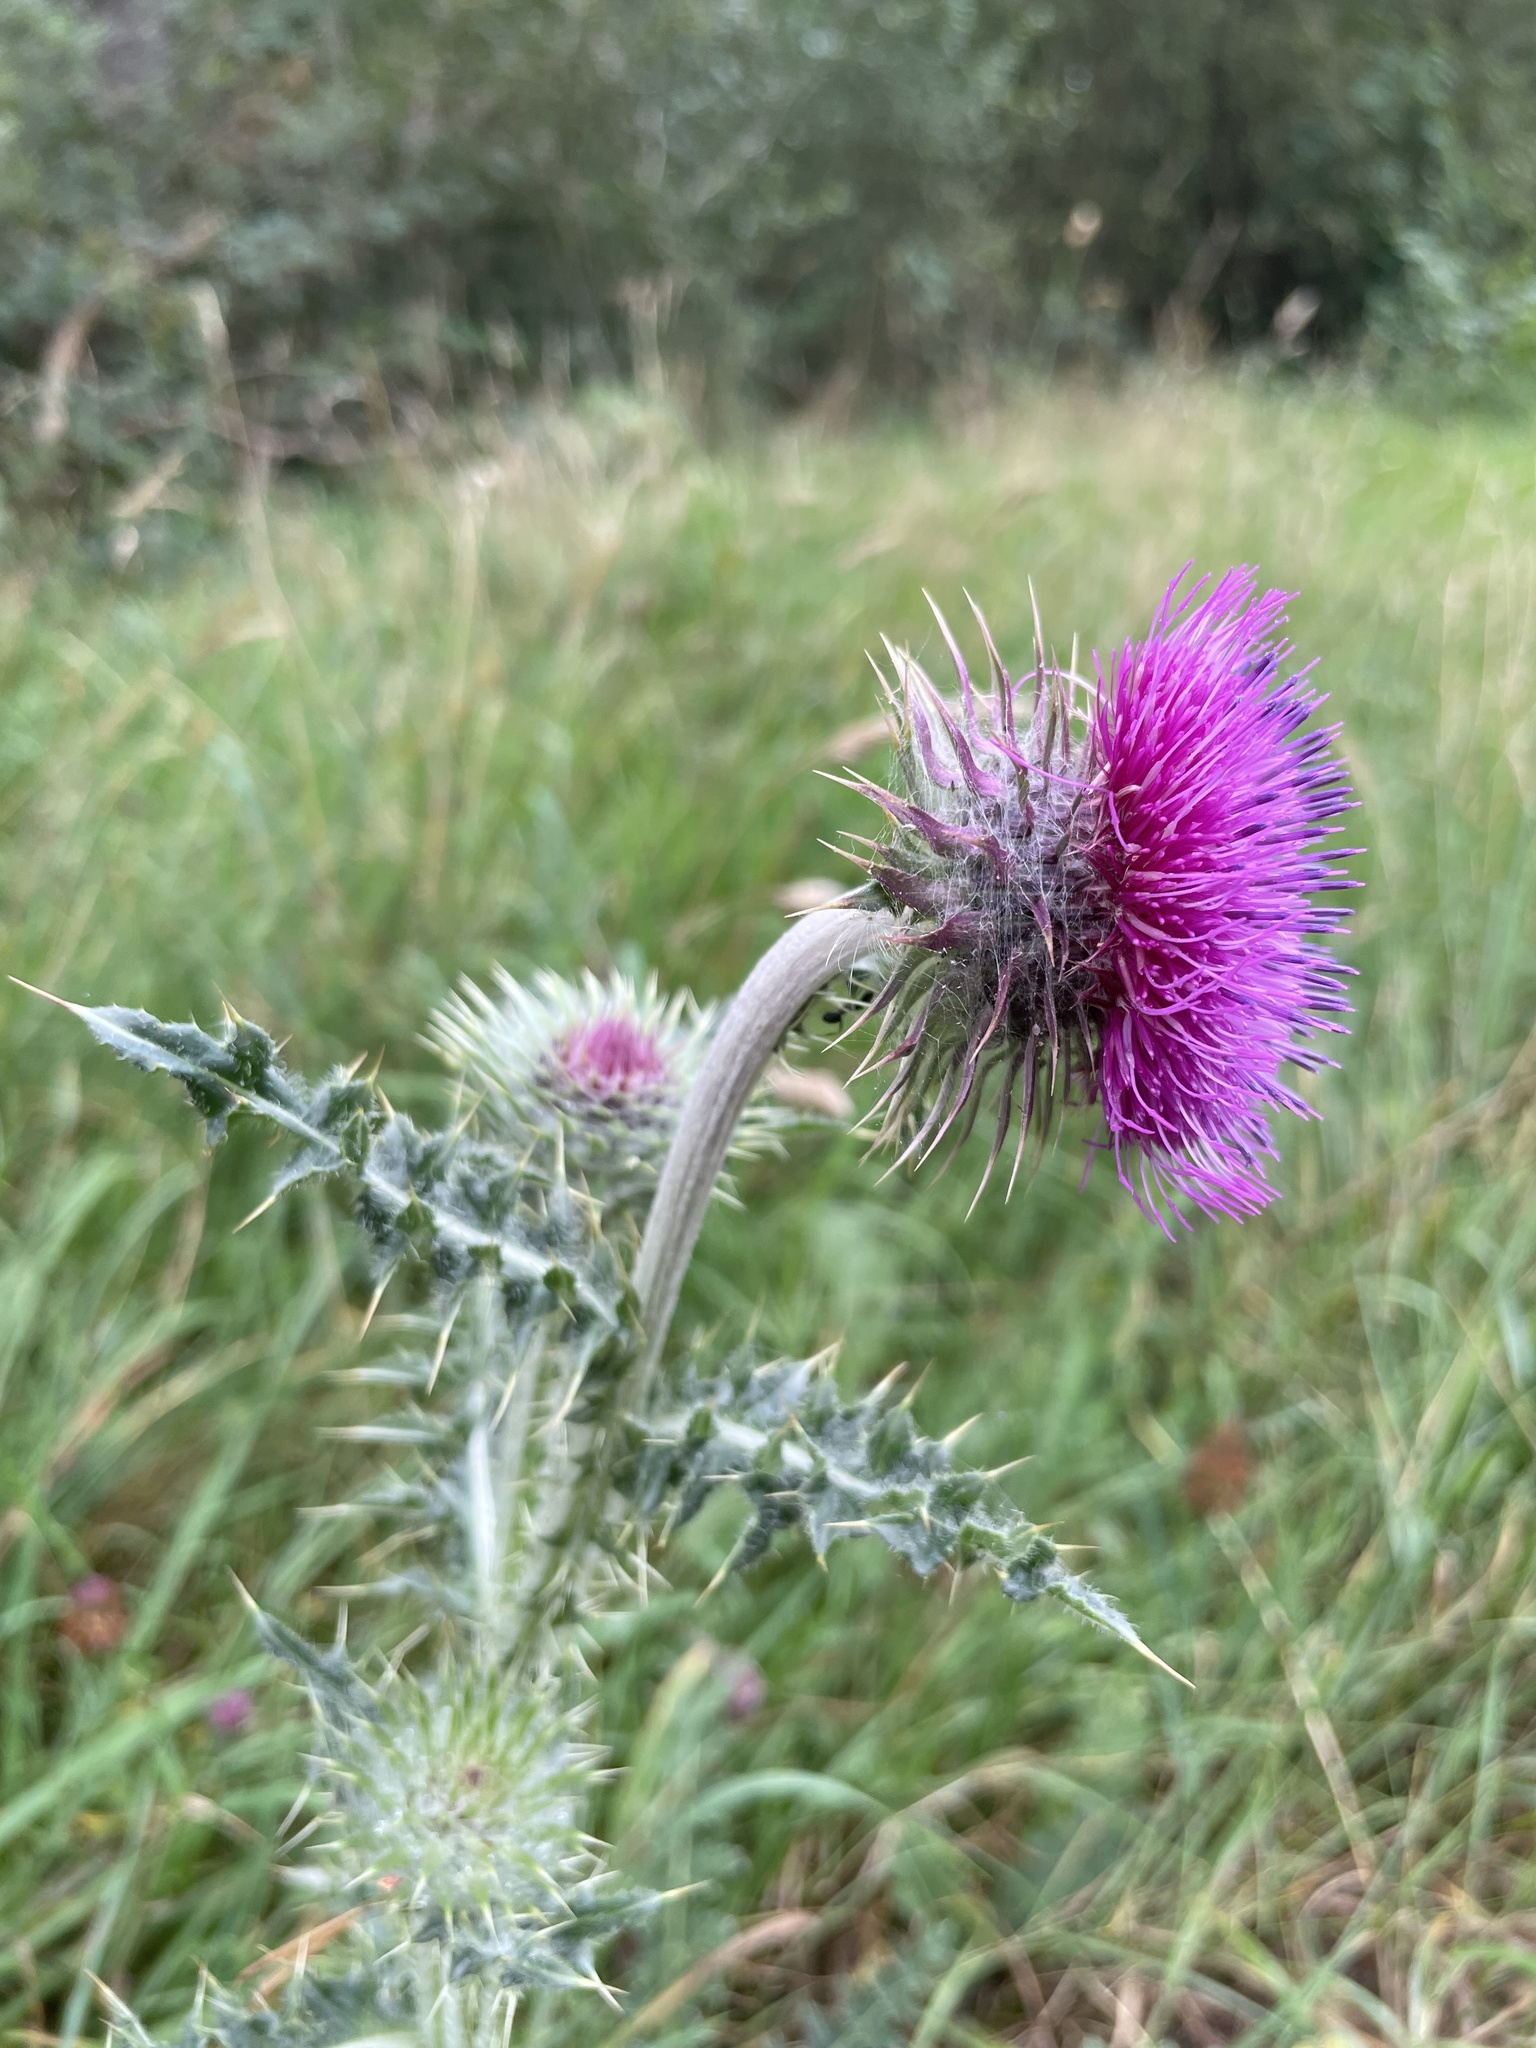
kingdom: Plantae
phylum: Tracheophyta
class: Magnoliopsida
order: Asterales
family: Asteraceae
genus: Carduus
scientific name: Carduus nutans
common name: Musk thistle
